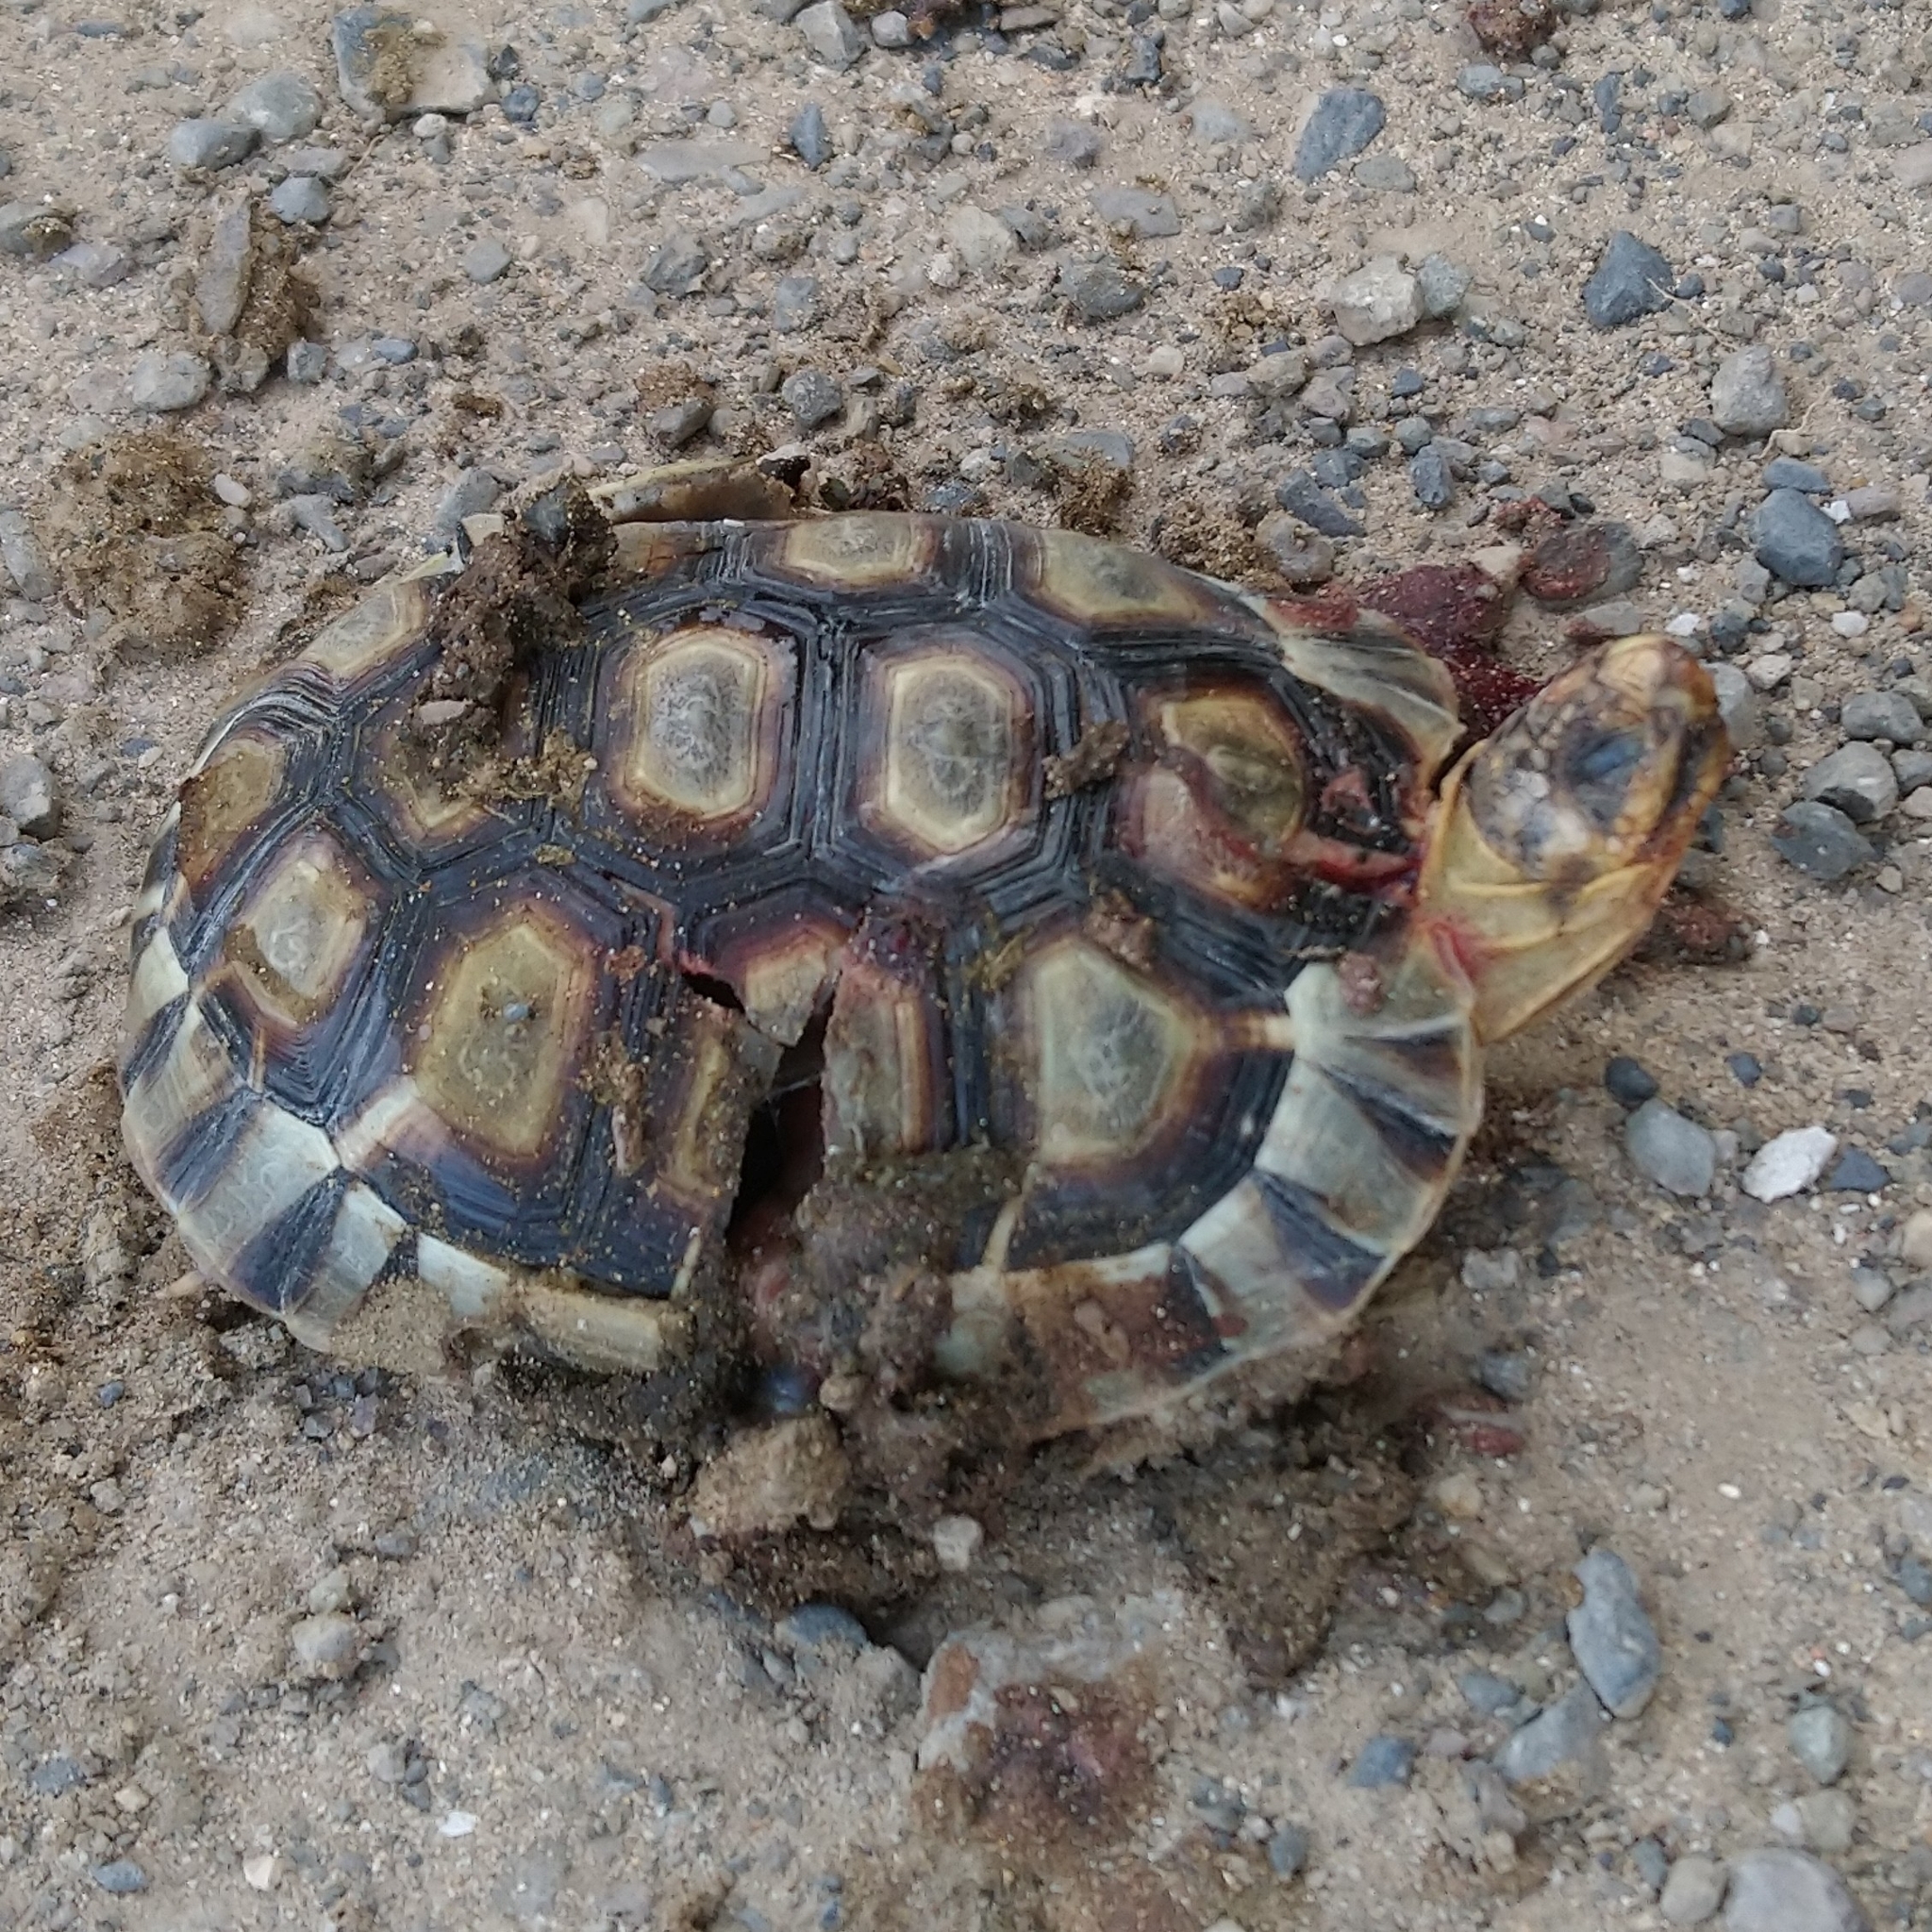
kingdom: Animalia
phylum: Chordata
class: Testudines
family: Testudinidae
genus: Chersina
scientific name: Chersina angulata
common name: South african bowsprit tortoise
